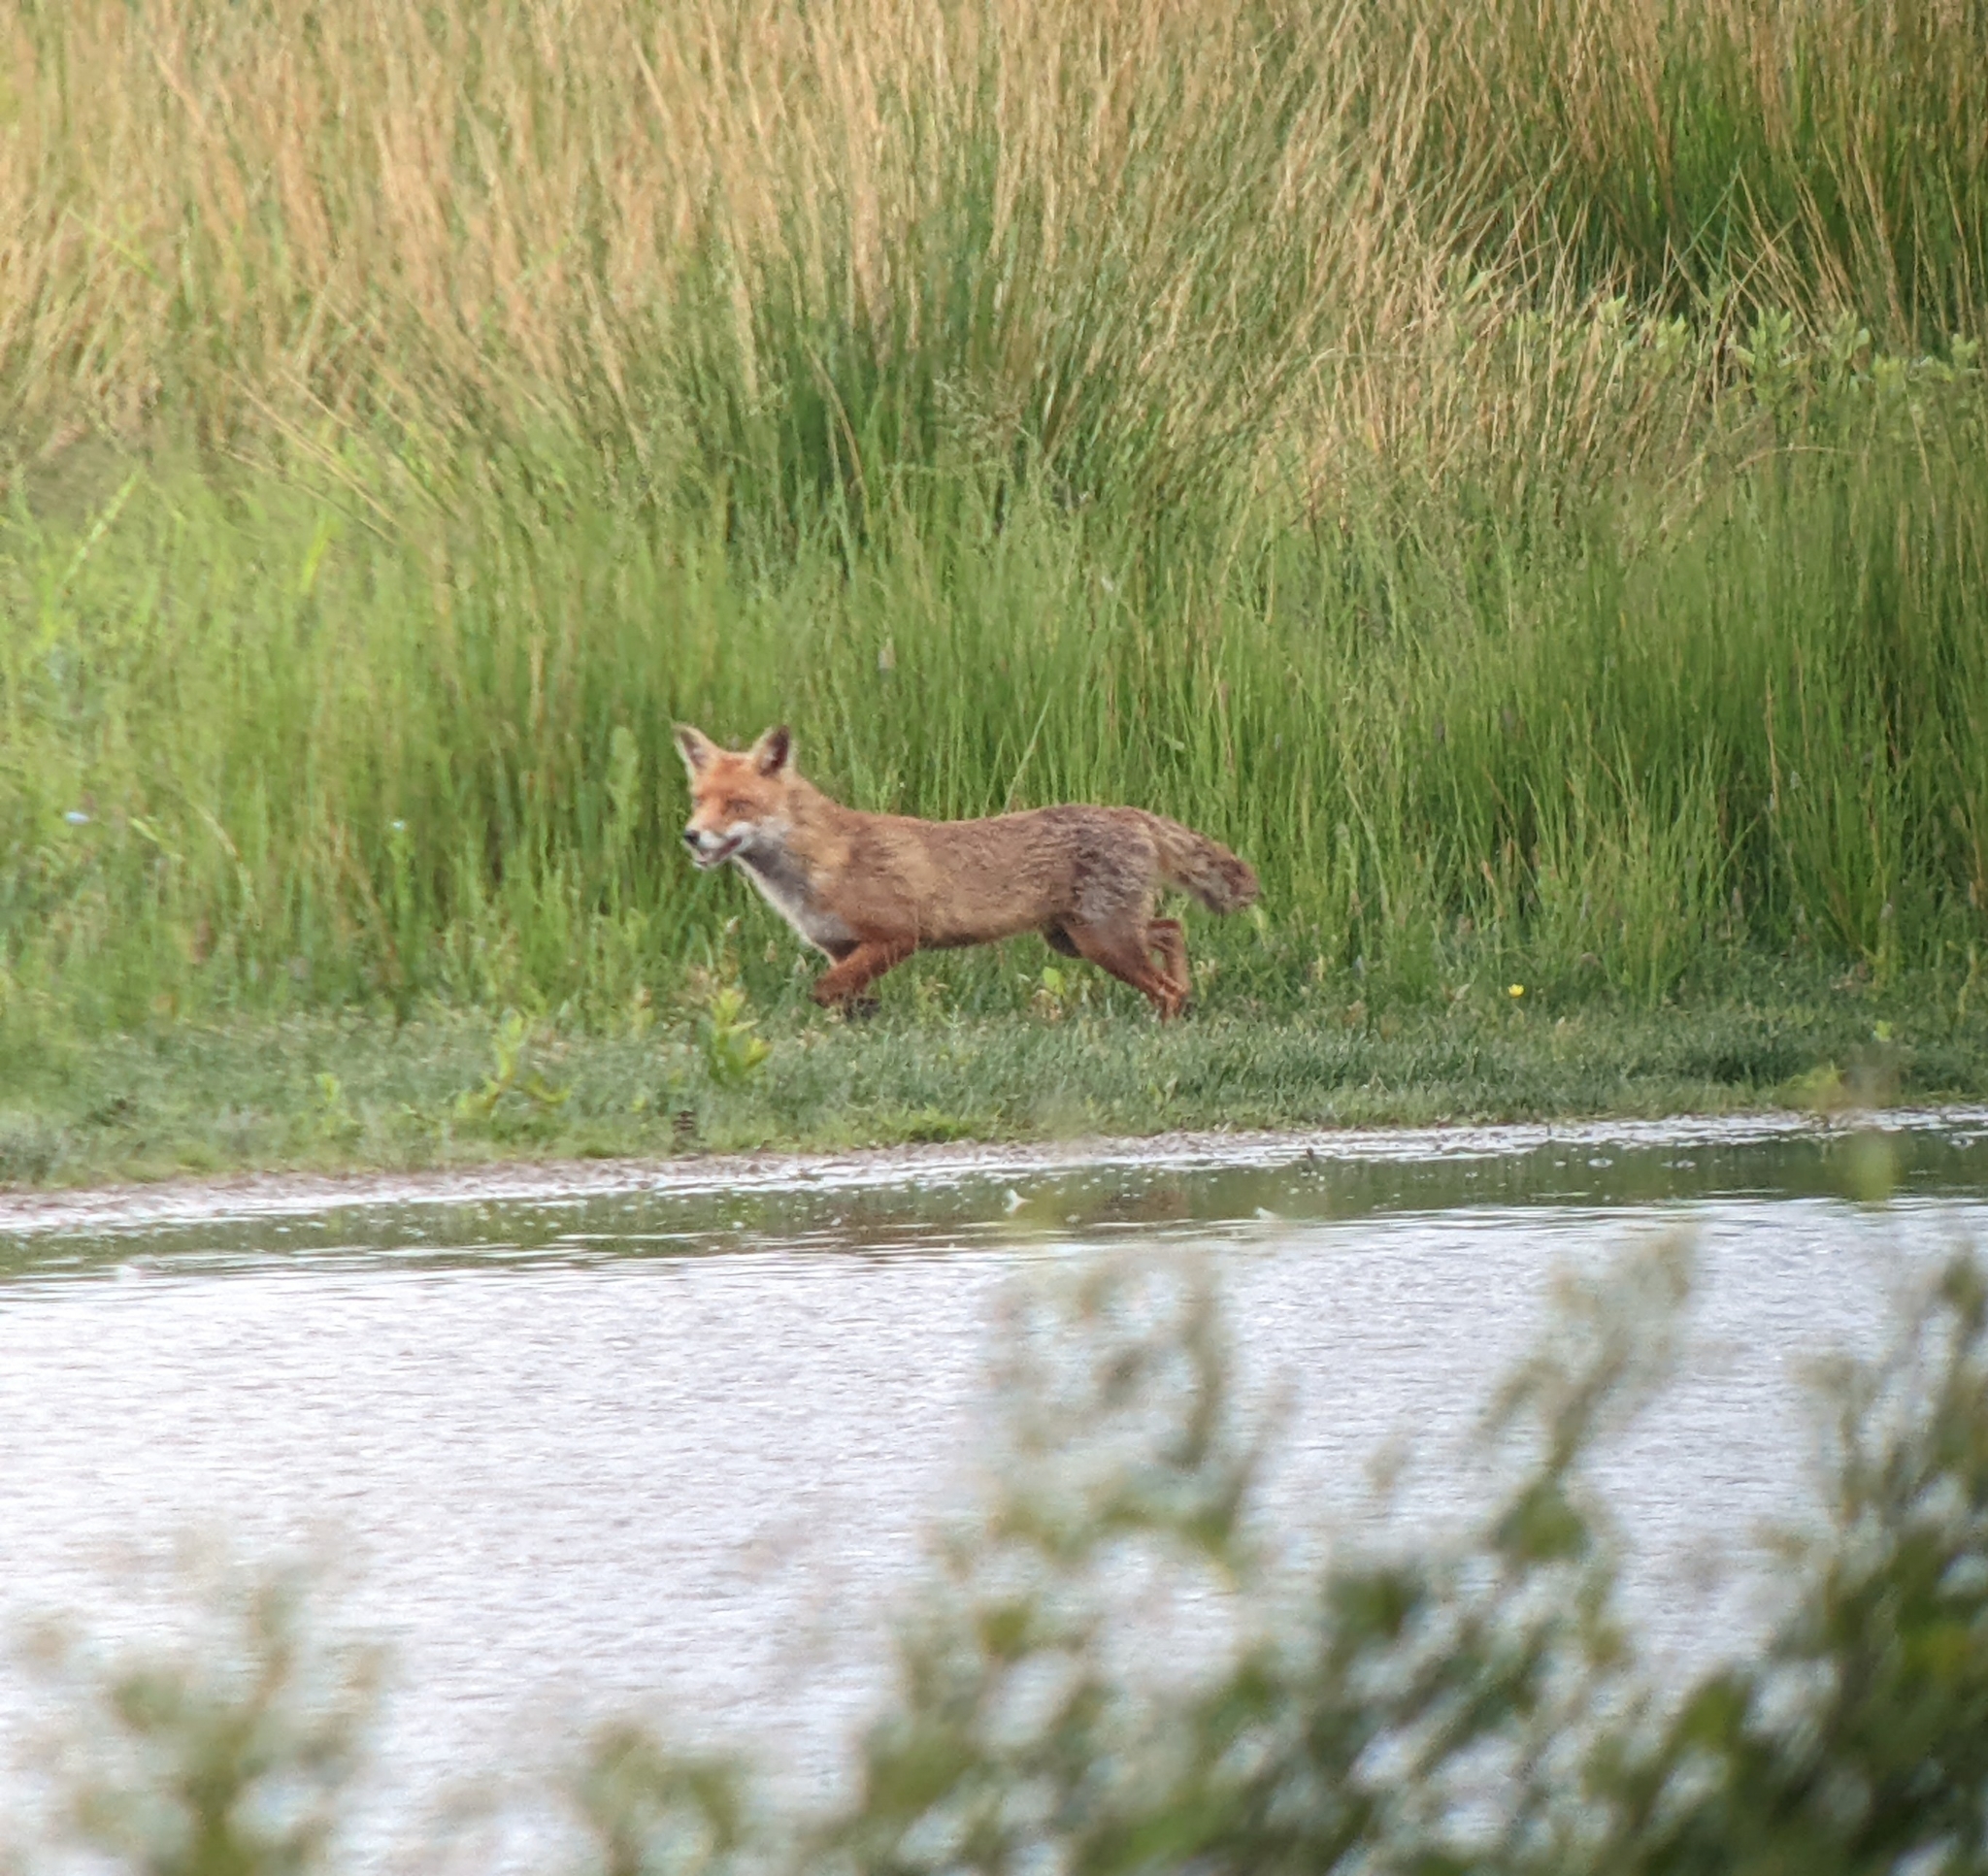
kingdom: Animalia
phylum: Chordata
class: Mammalia
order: Carnivora
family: Canidae
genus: Vulpes
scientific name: Vulpes vulpes
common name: Red fox
